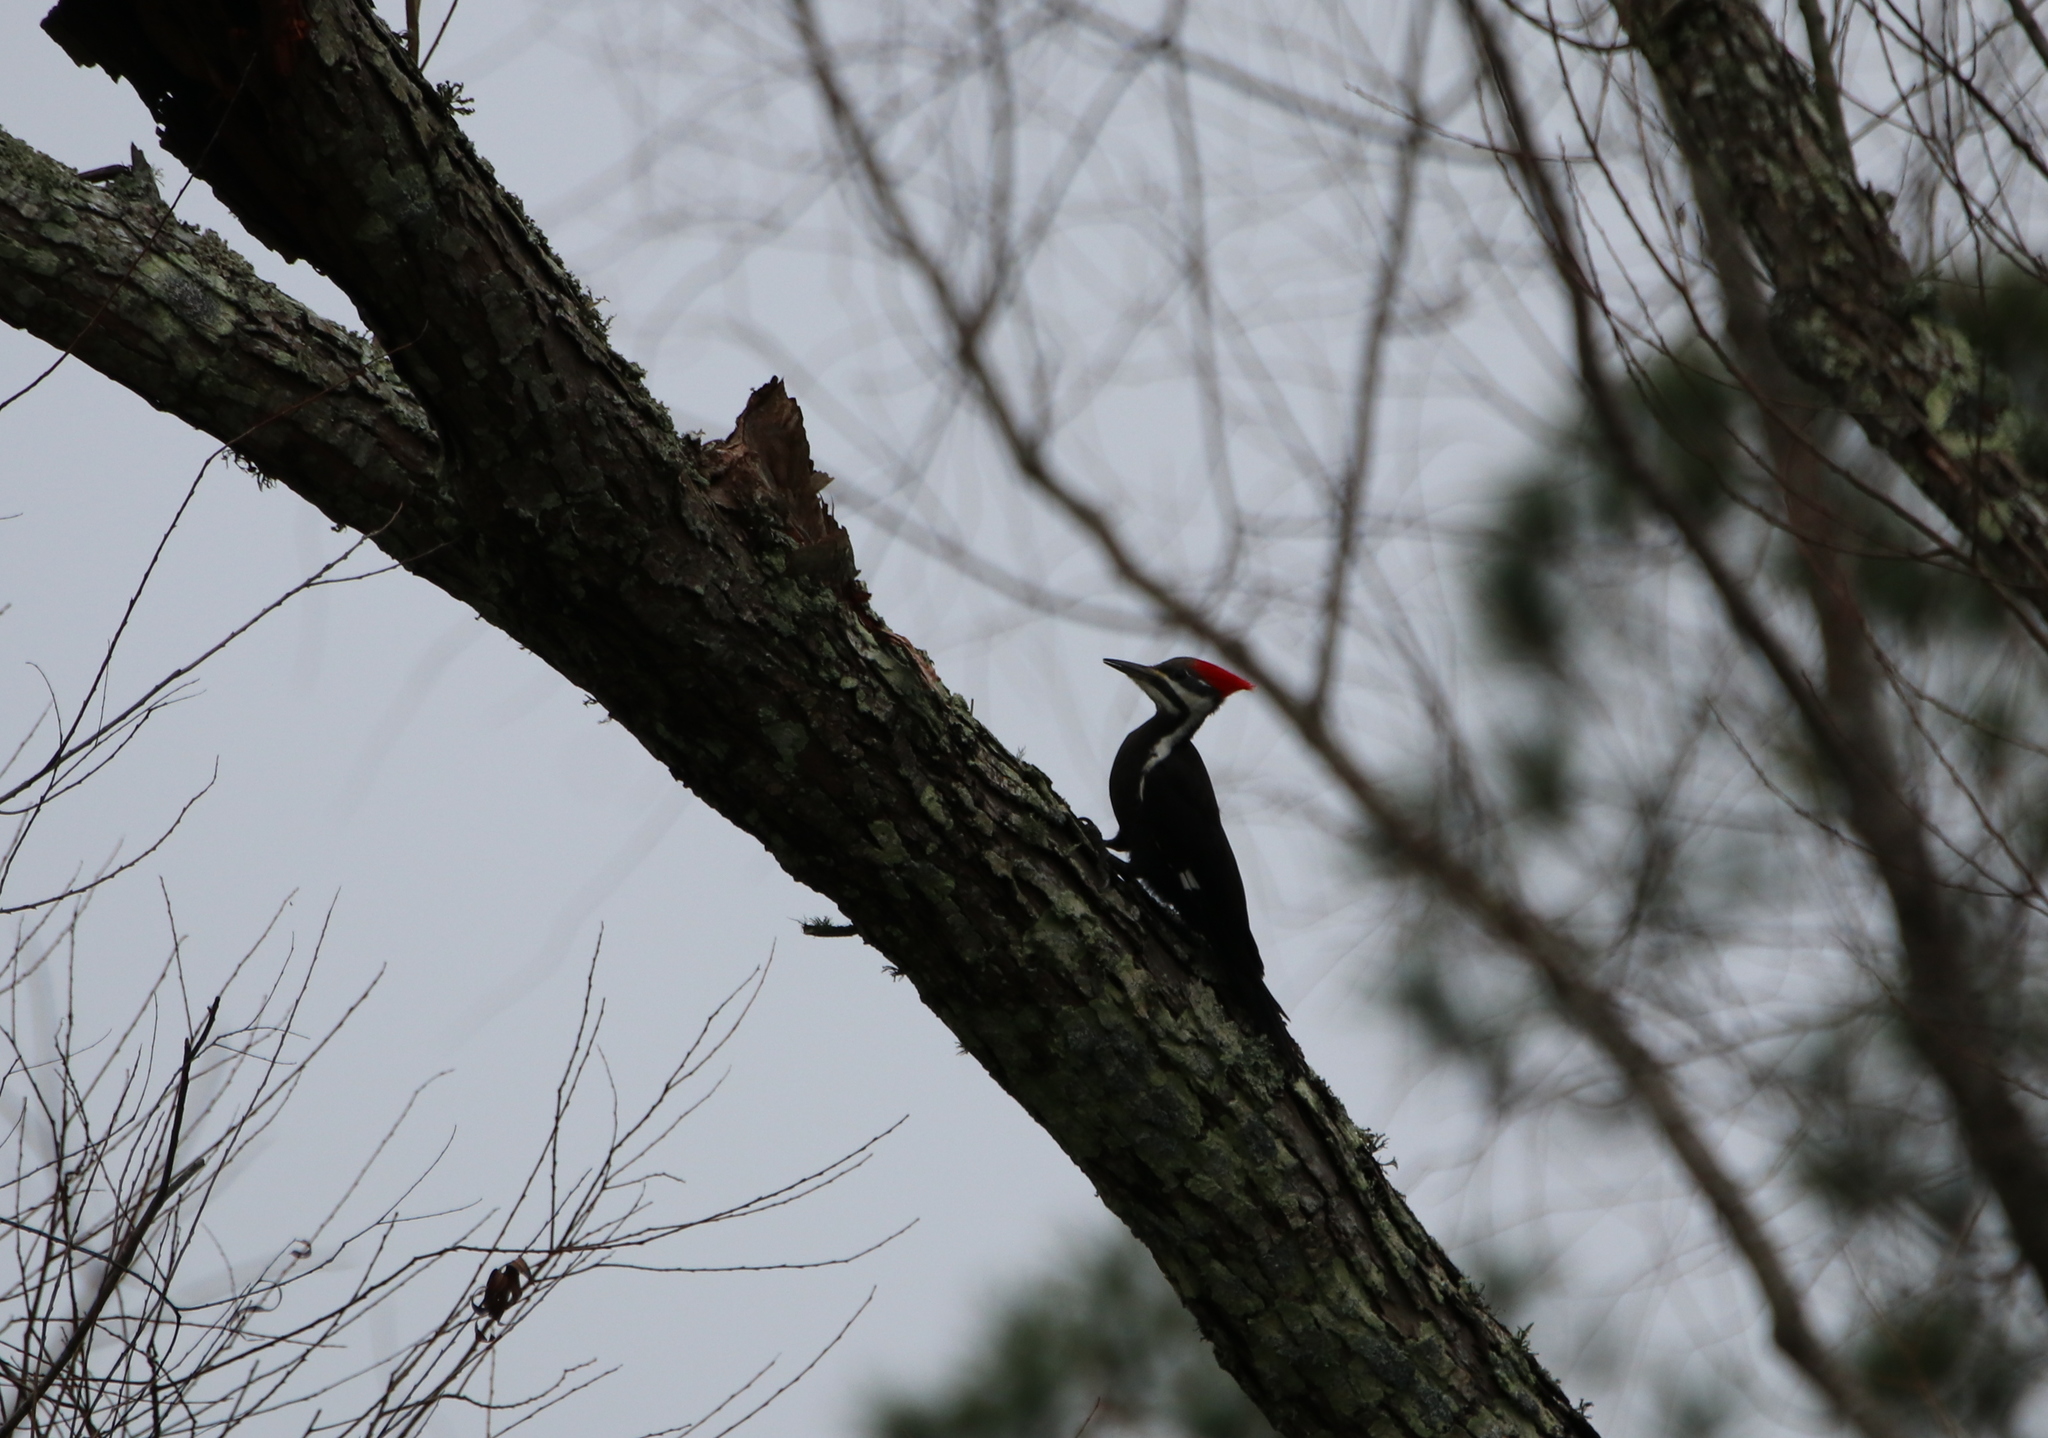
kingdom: Animalia
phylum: Chordata
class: Aves
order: Piciformes
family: Picidae
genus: Dryocopus
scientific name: Dryocopus pileatus
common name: Pileated woodpecker
